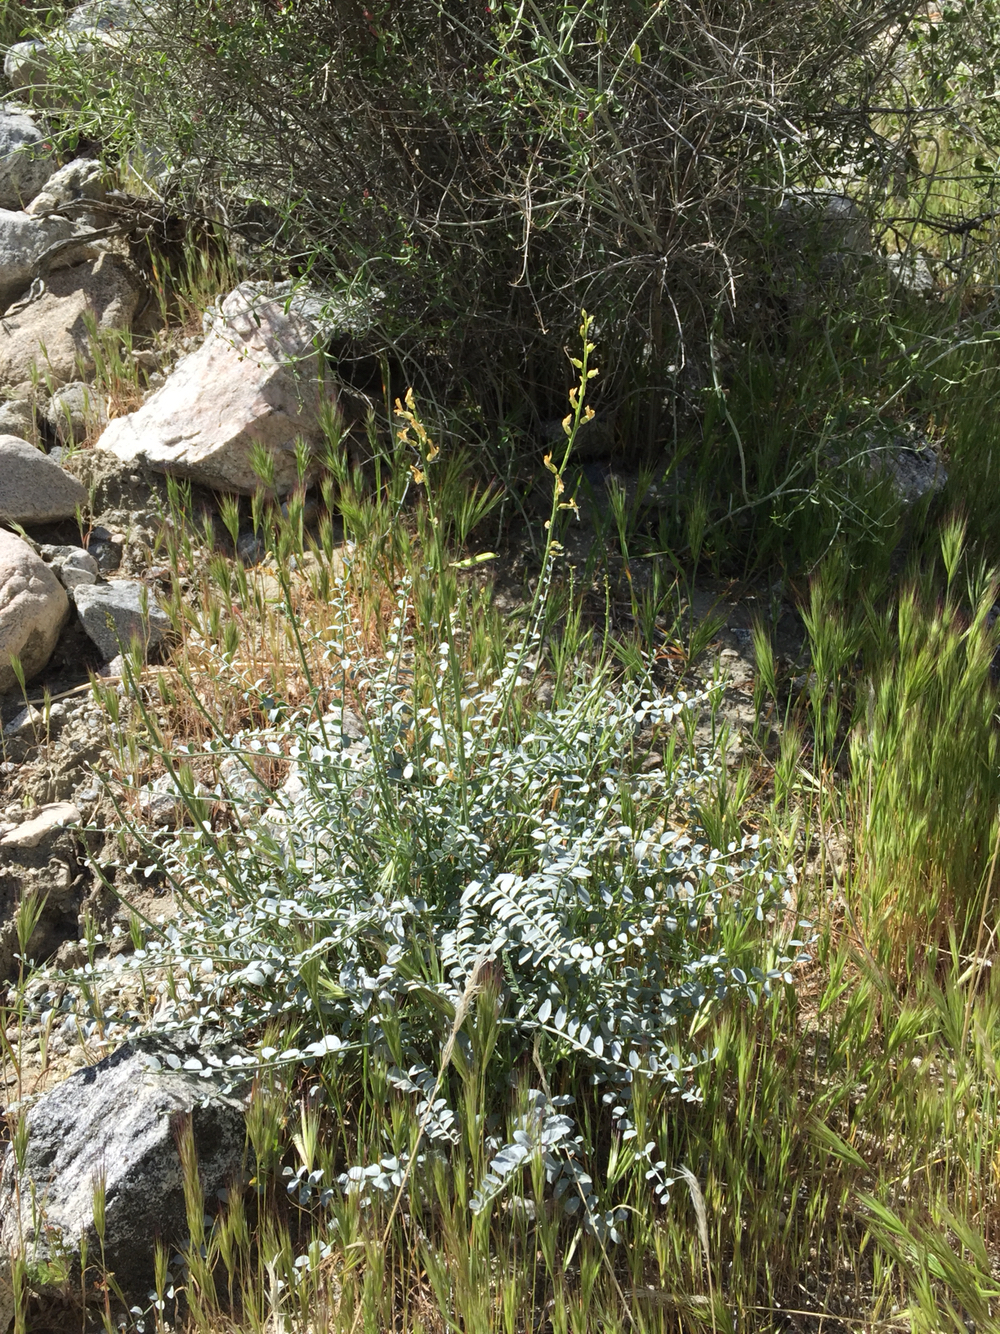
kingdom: Plantae
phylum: Tracheophyta
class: Magnoliopsida
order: Fabales
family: Fabaceae
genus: Astragalus
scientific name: Astragalus tricarinatus
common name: Triple-rib milk-vetch
